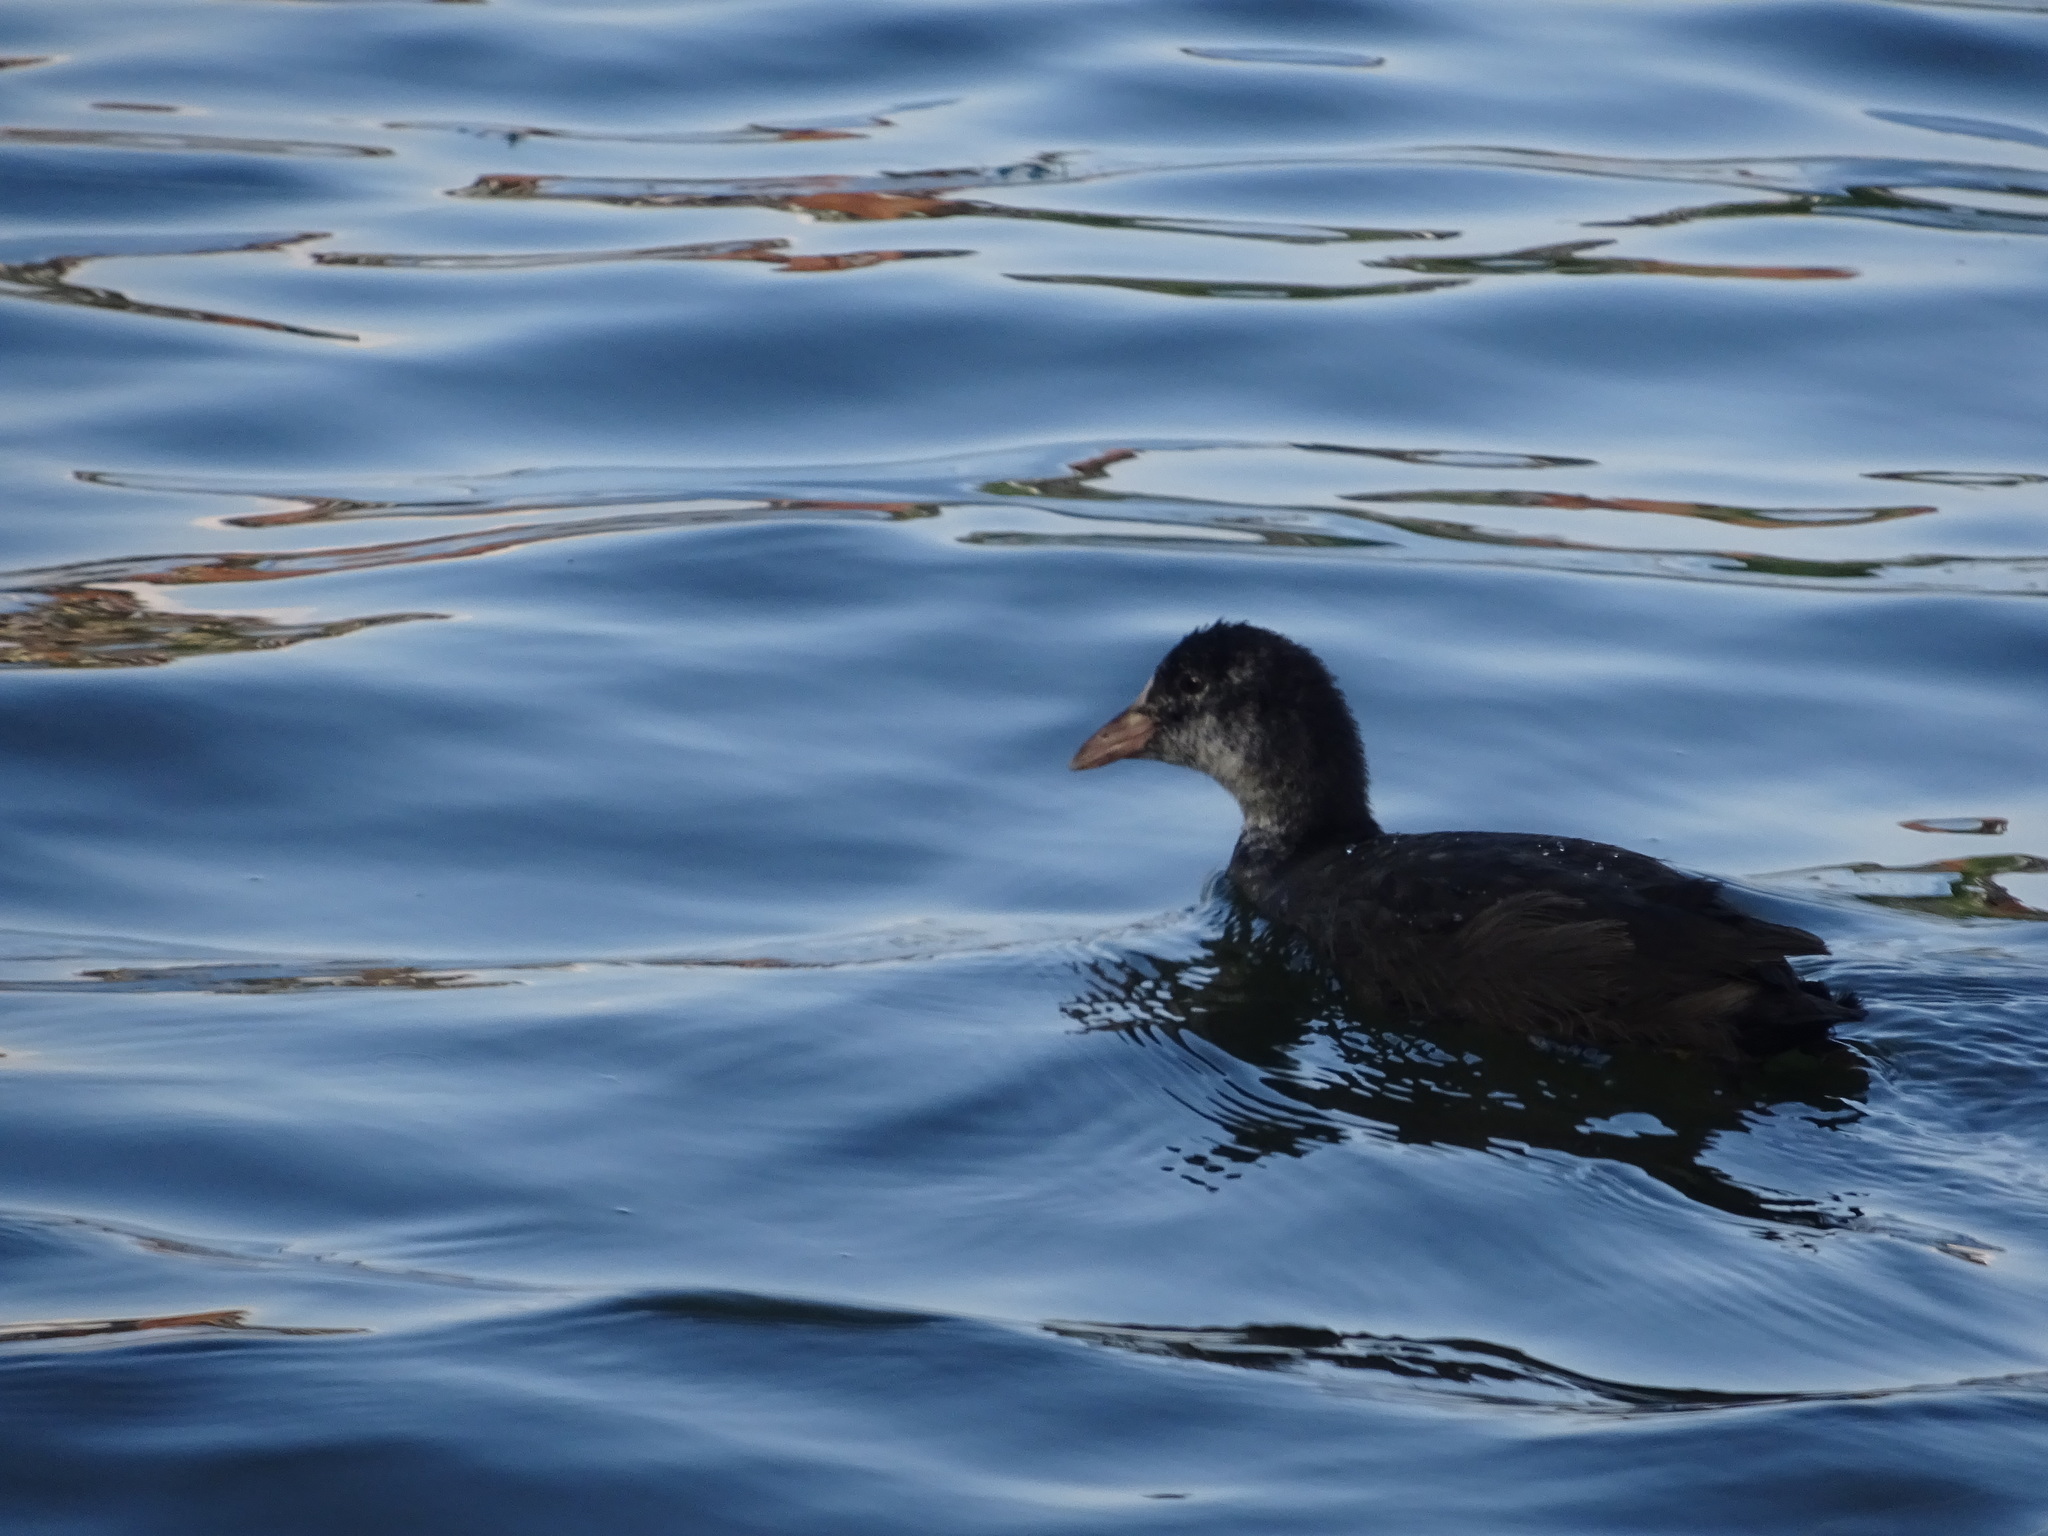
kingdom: Animalia
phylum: Chordata
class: Aves
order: Gruiformes
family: Rallidae
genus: Fulica
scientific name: Fulica atra
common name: Eurasian coot
